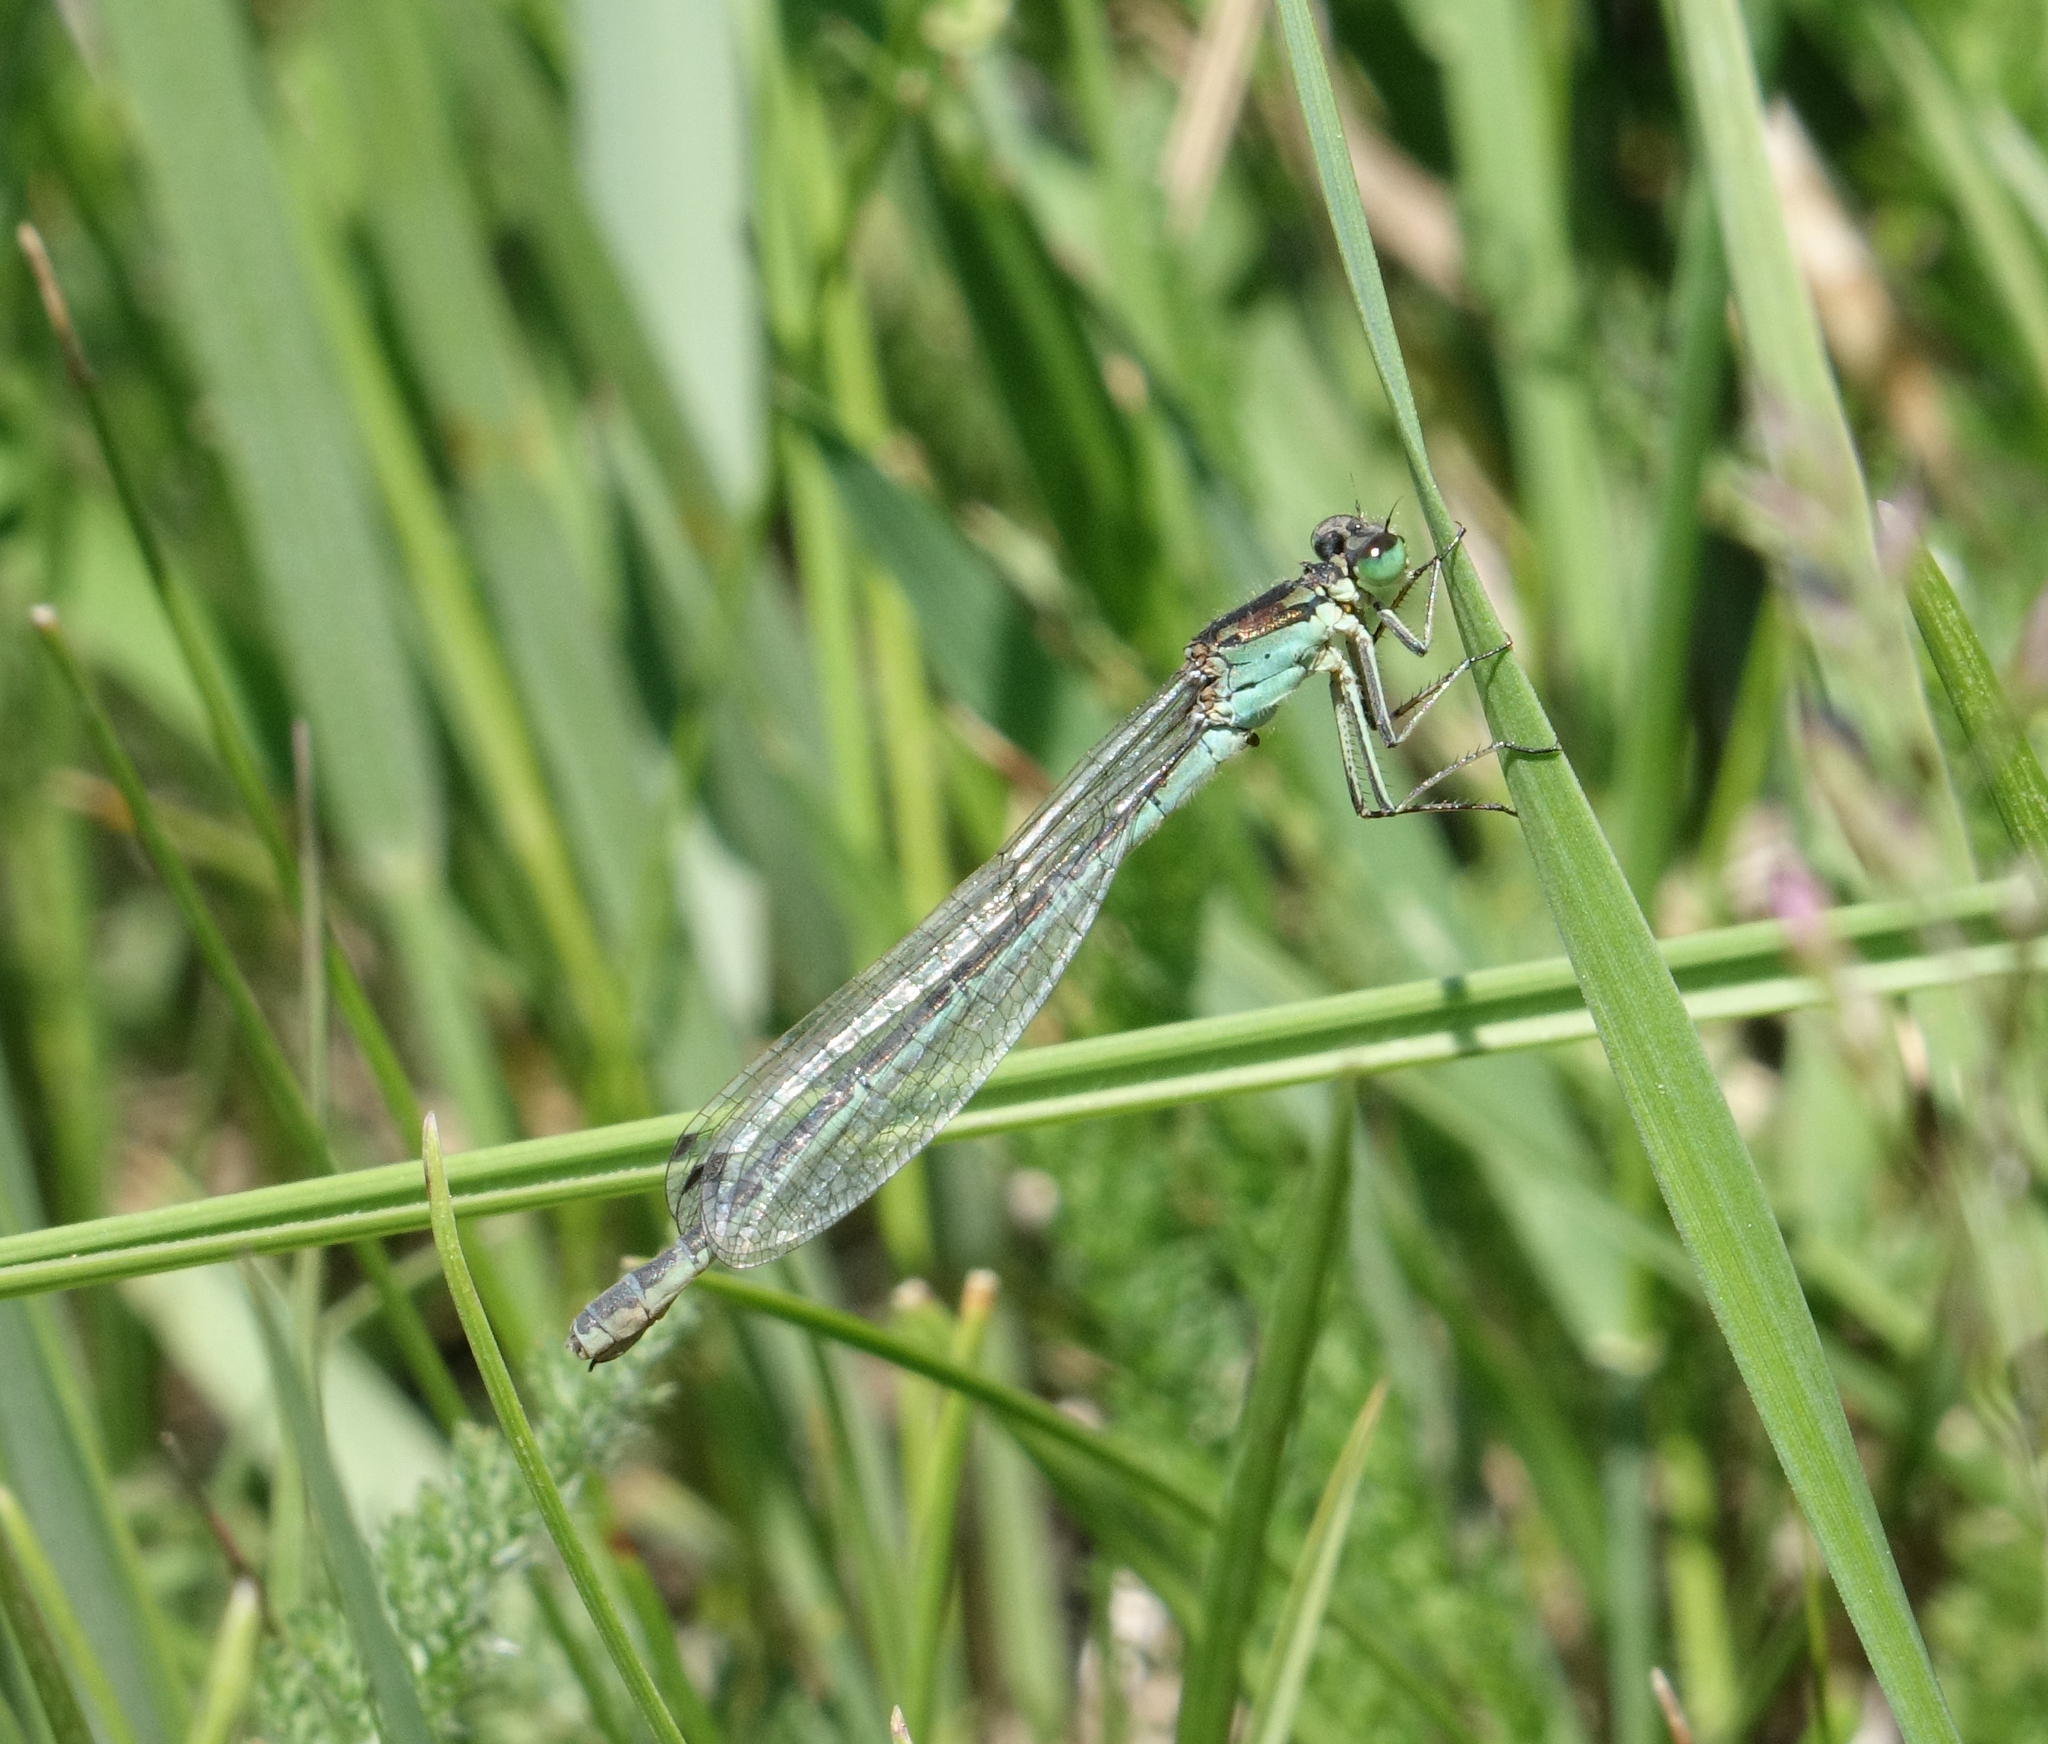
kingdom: Animalia
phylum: Arthropoda
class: Insecta
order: Odonata
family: Coenagrionidae
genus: Coenagrion
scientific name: Coenagrion lunulatum
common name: Irish damselfly
